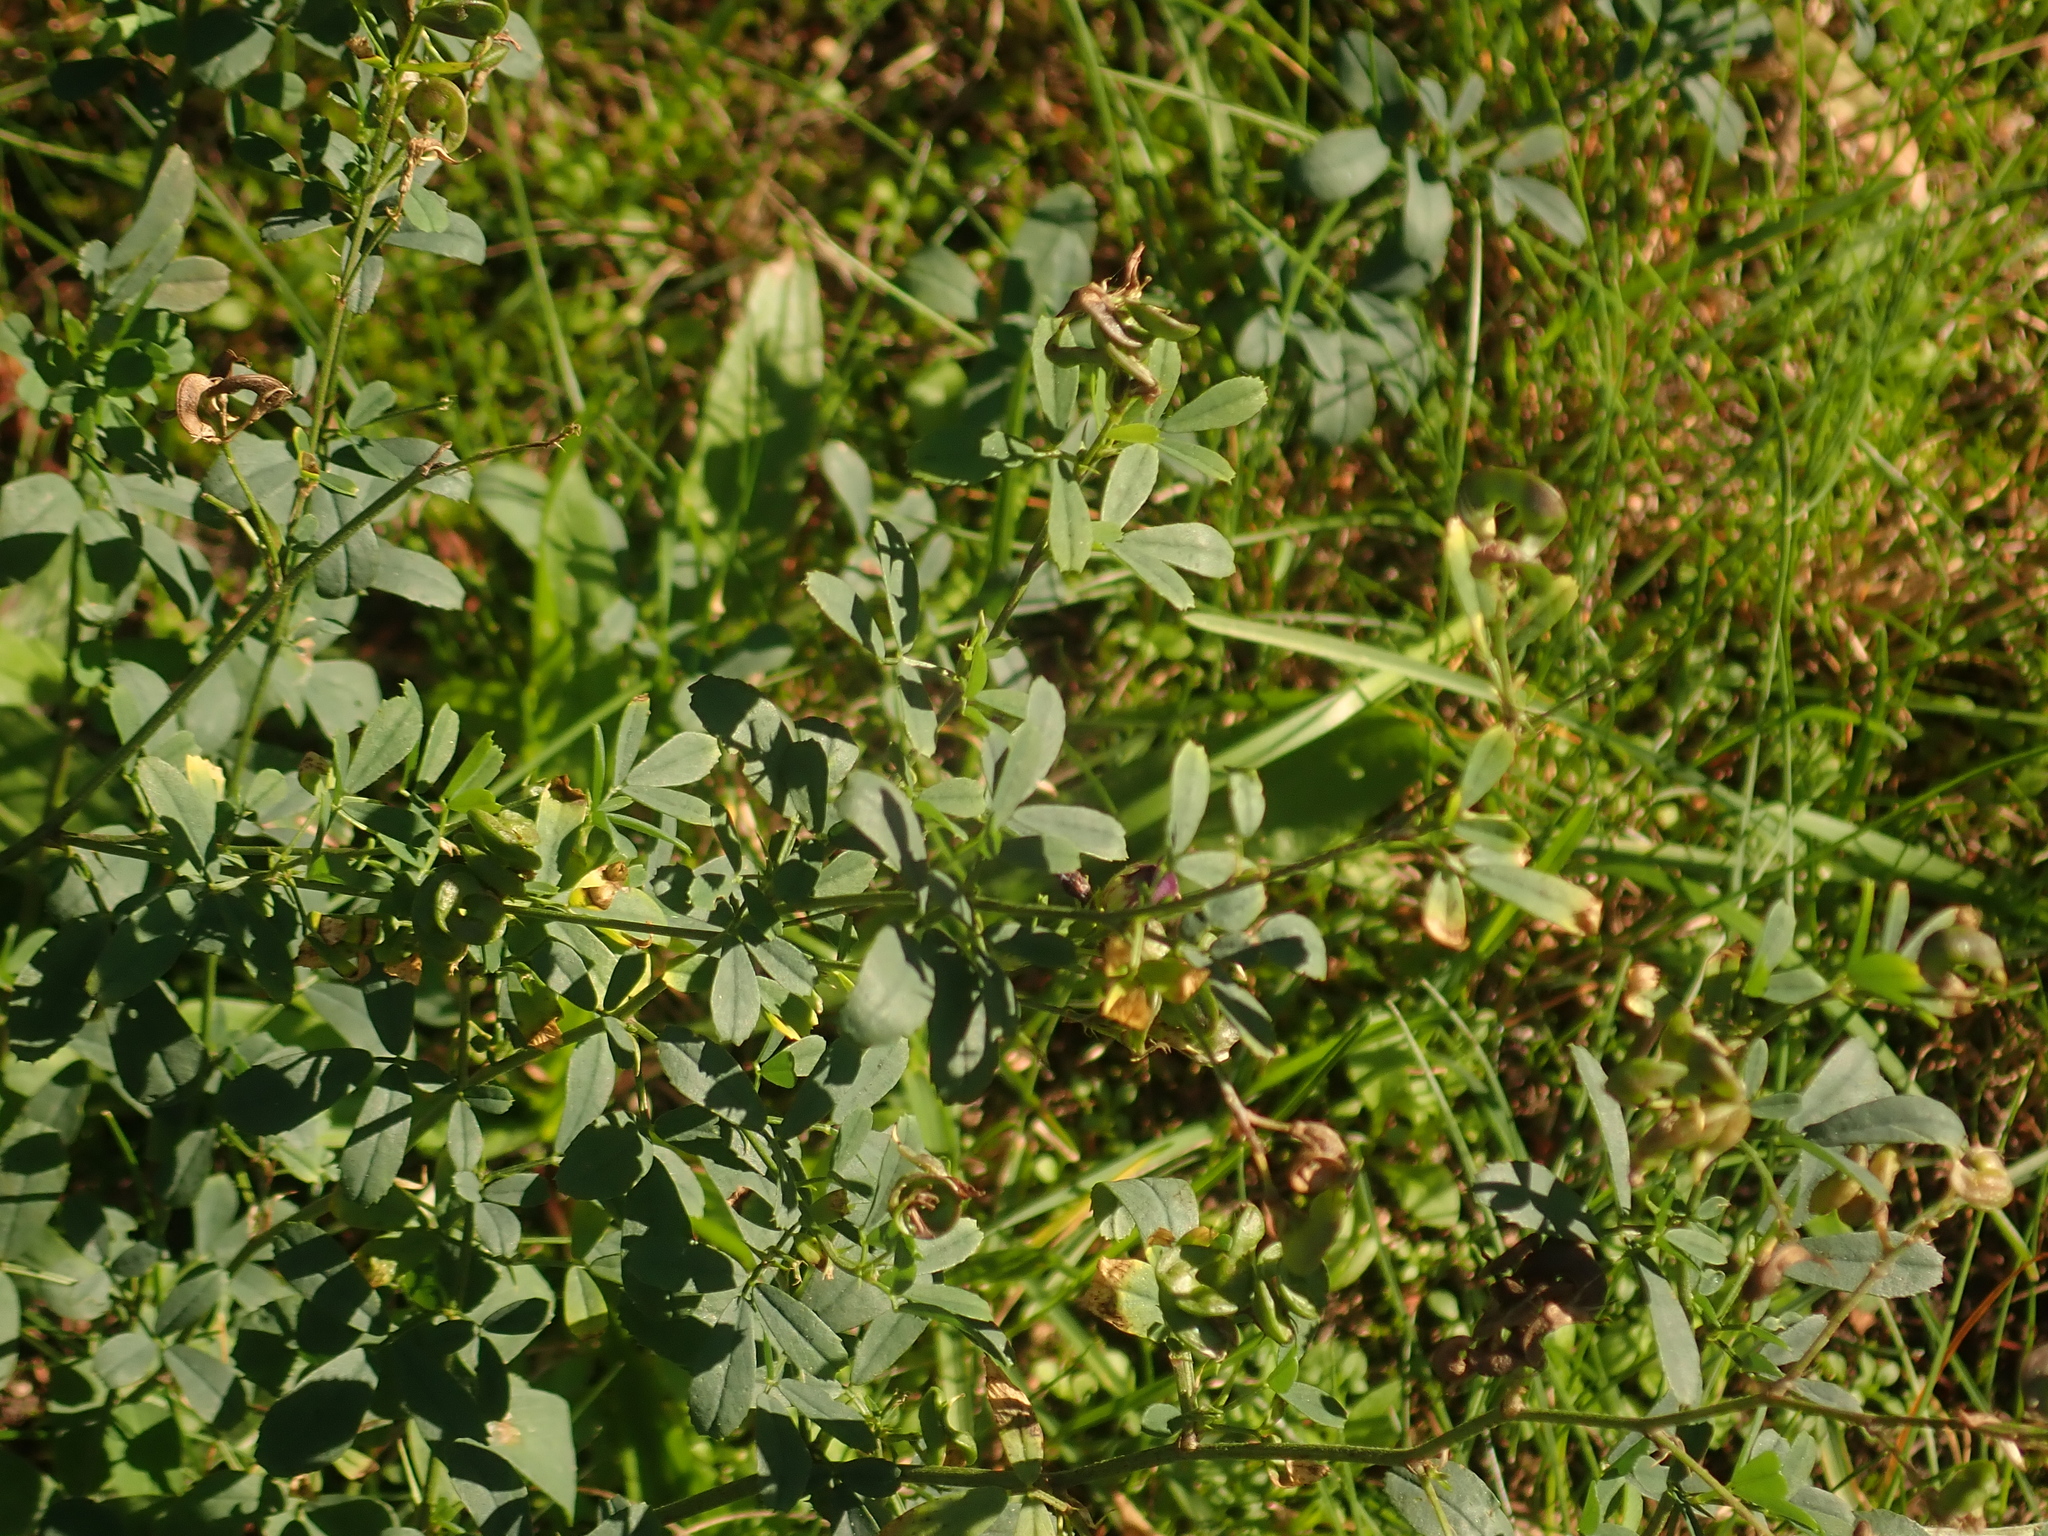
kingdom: Plantae
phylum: Tracheophyta
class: Magnoliopsida
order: Fabales
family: Fabaceae
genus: Medicago
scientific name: Medicago varia
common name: Sand lucerne
